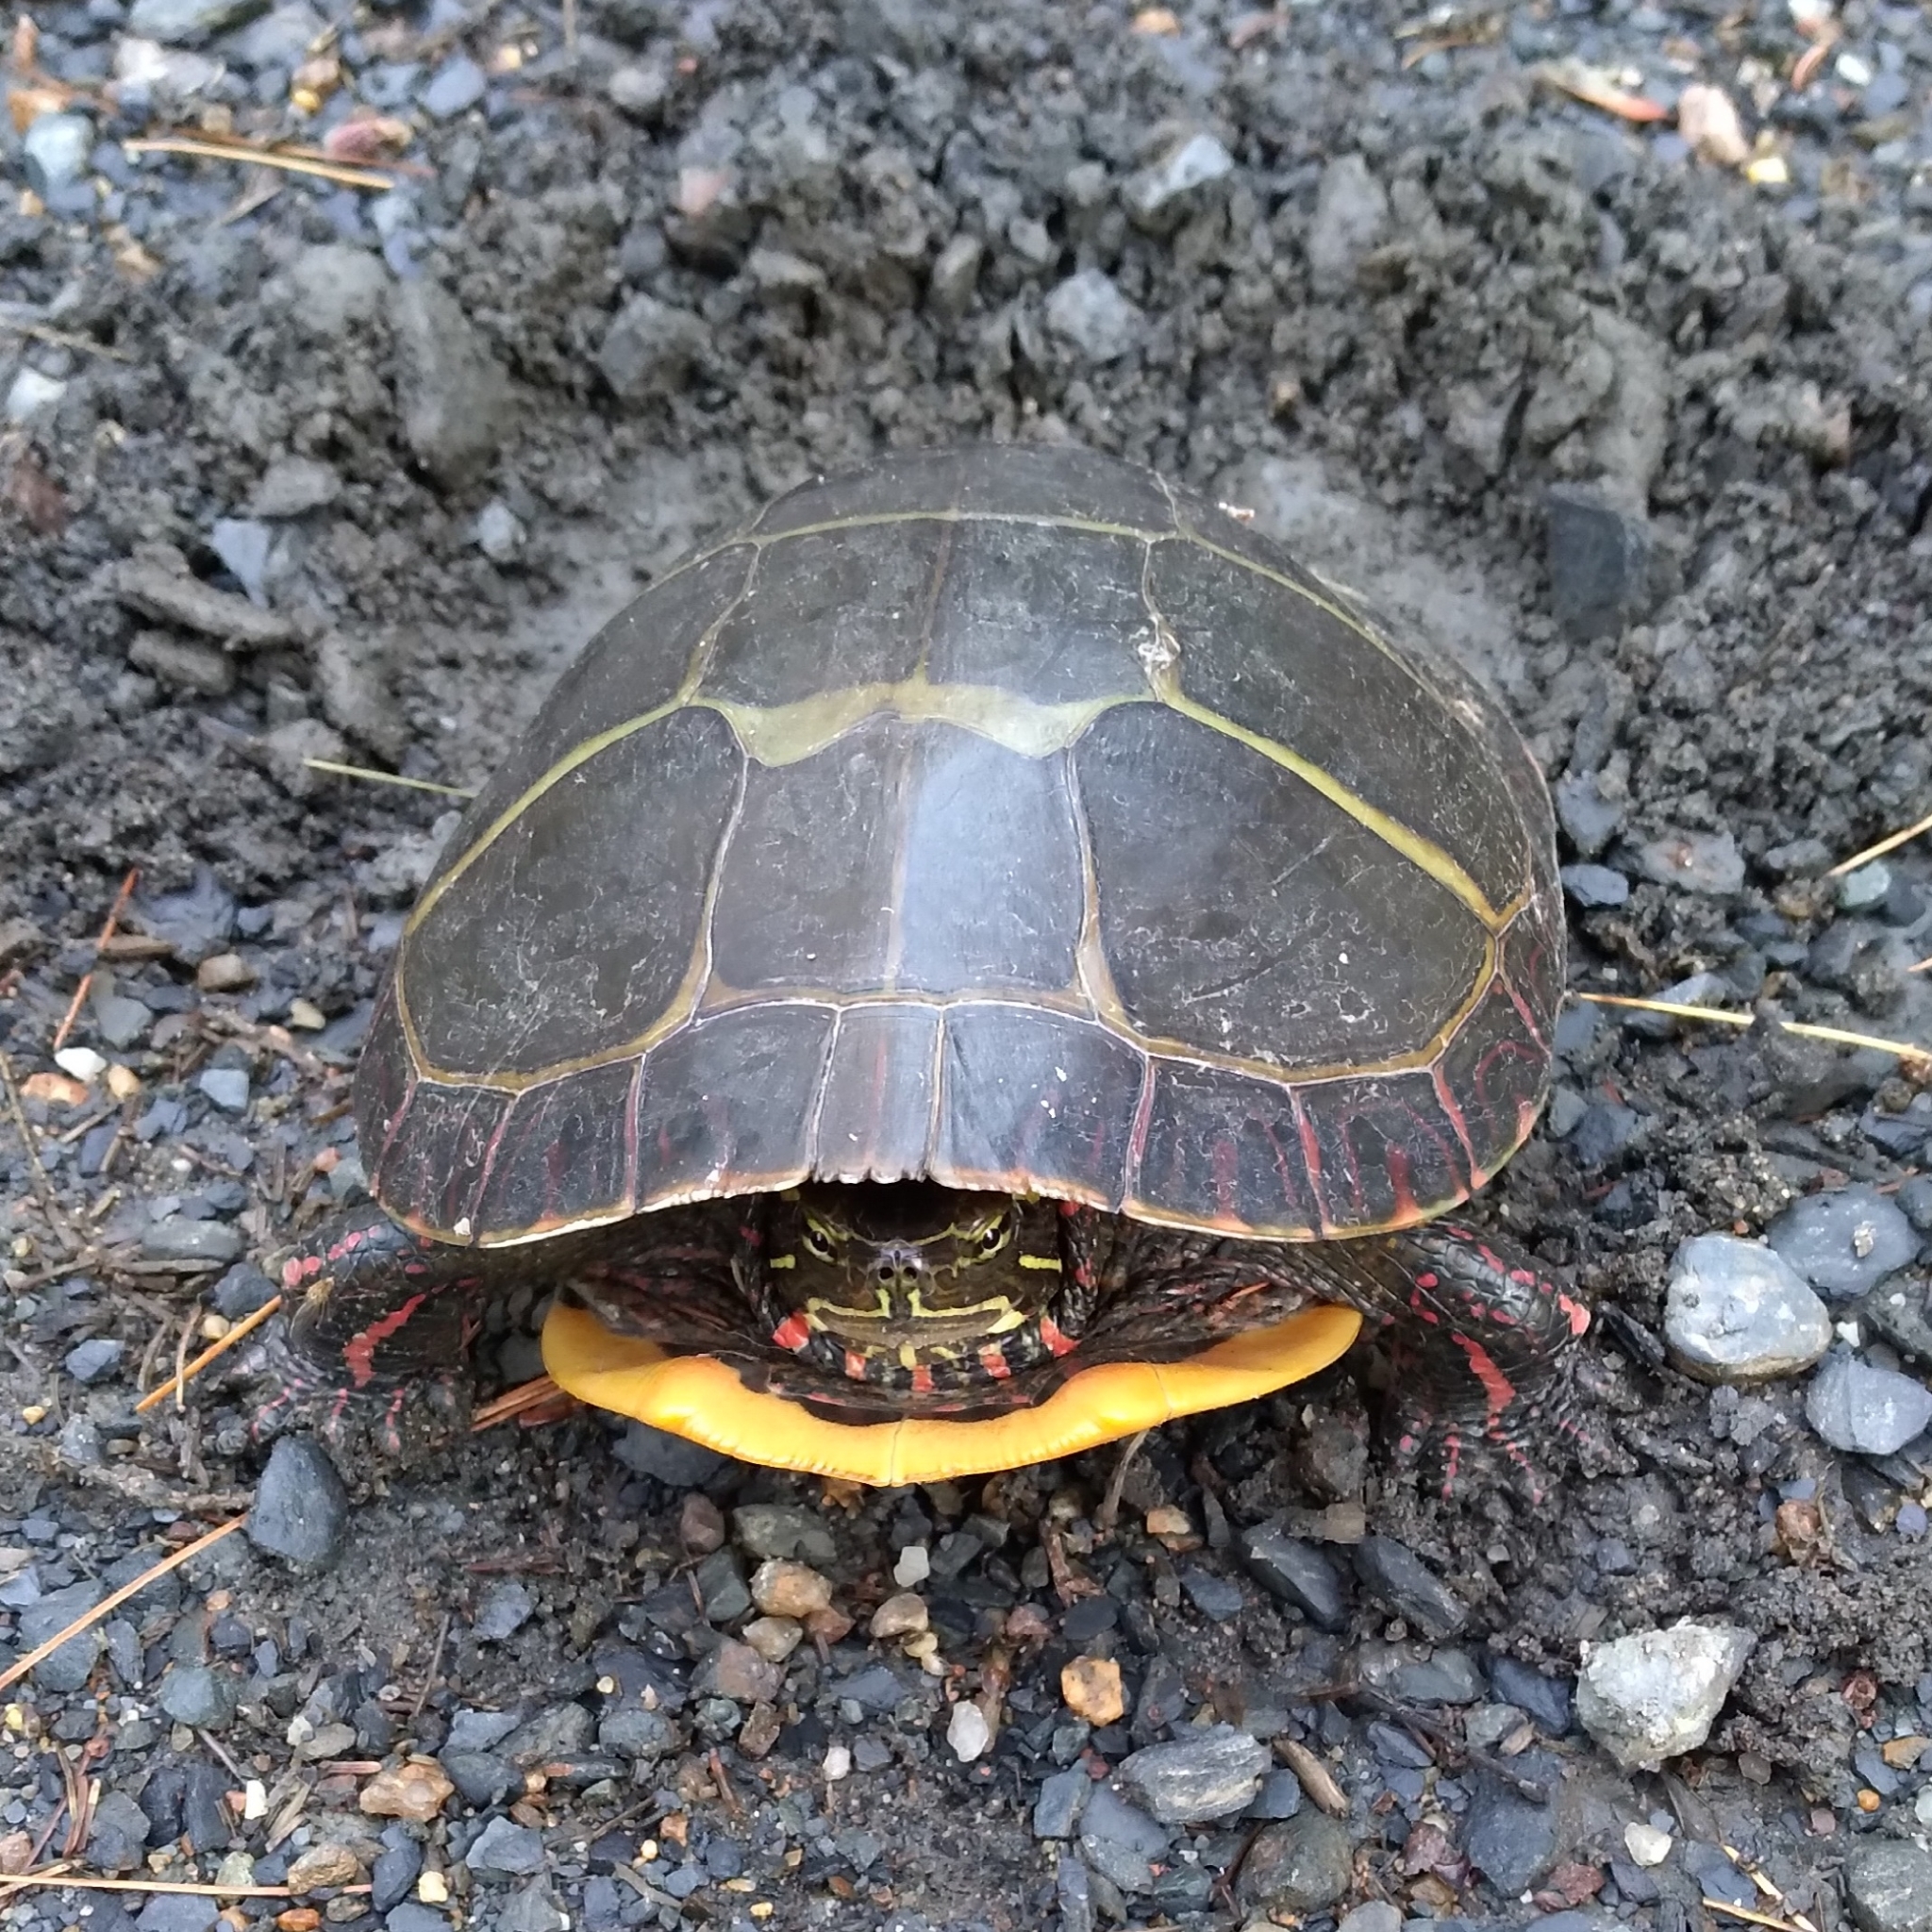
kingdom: Animalia
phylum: Chordata
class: Testudines
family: Emydidae
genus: Chrysemys
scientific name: Chrysemys picta
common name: Painted turtle
